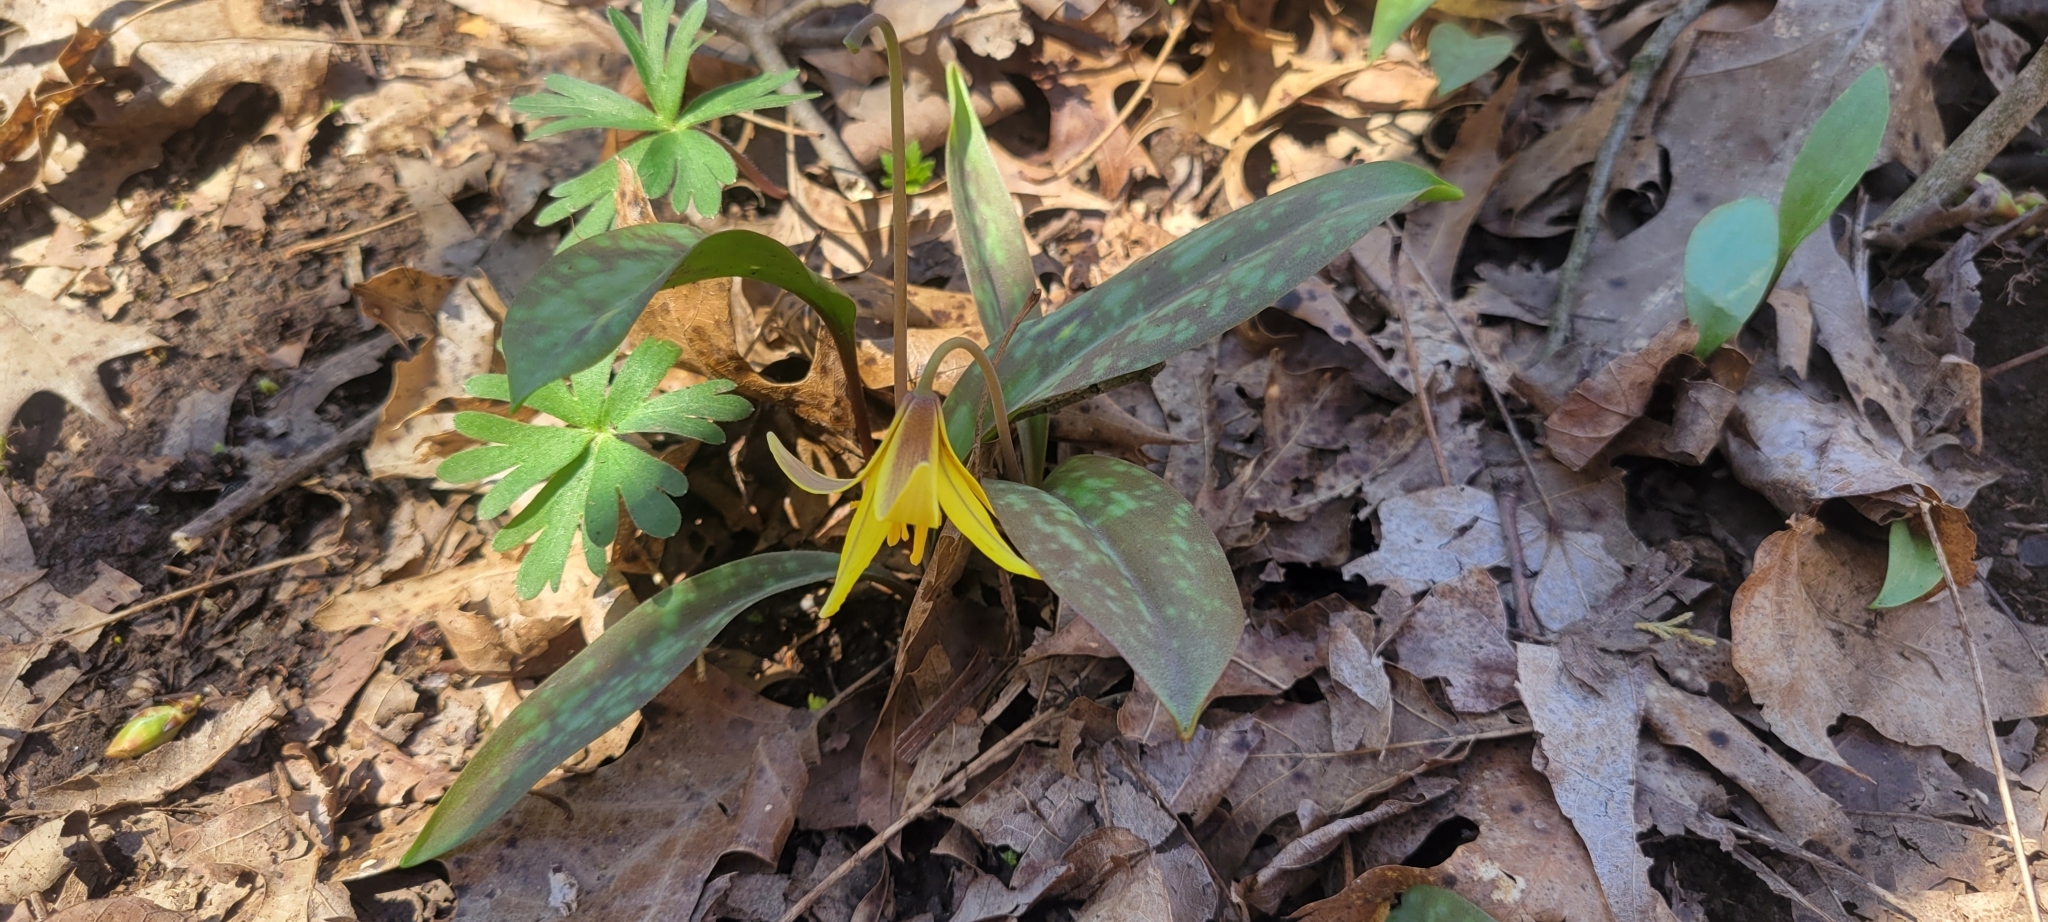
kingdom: Plantae
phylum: Tracheophyta
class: Liliopsida
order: Liliales
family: Liliaceae
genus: Erythronium
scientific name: Erythronium americanum
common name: Yellow adder's-tongue
